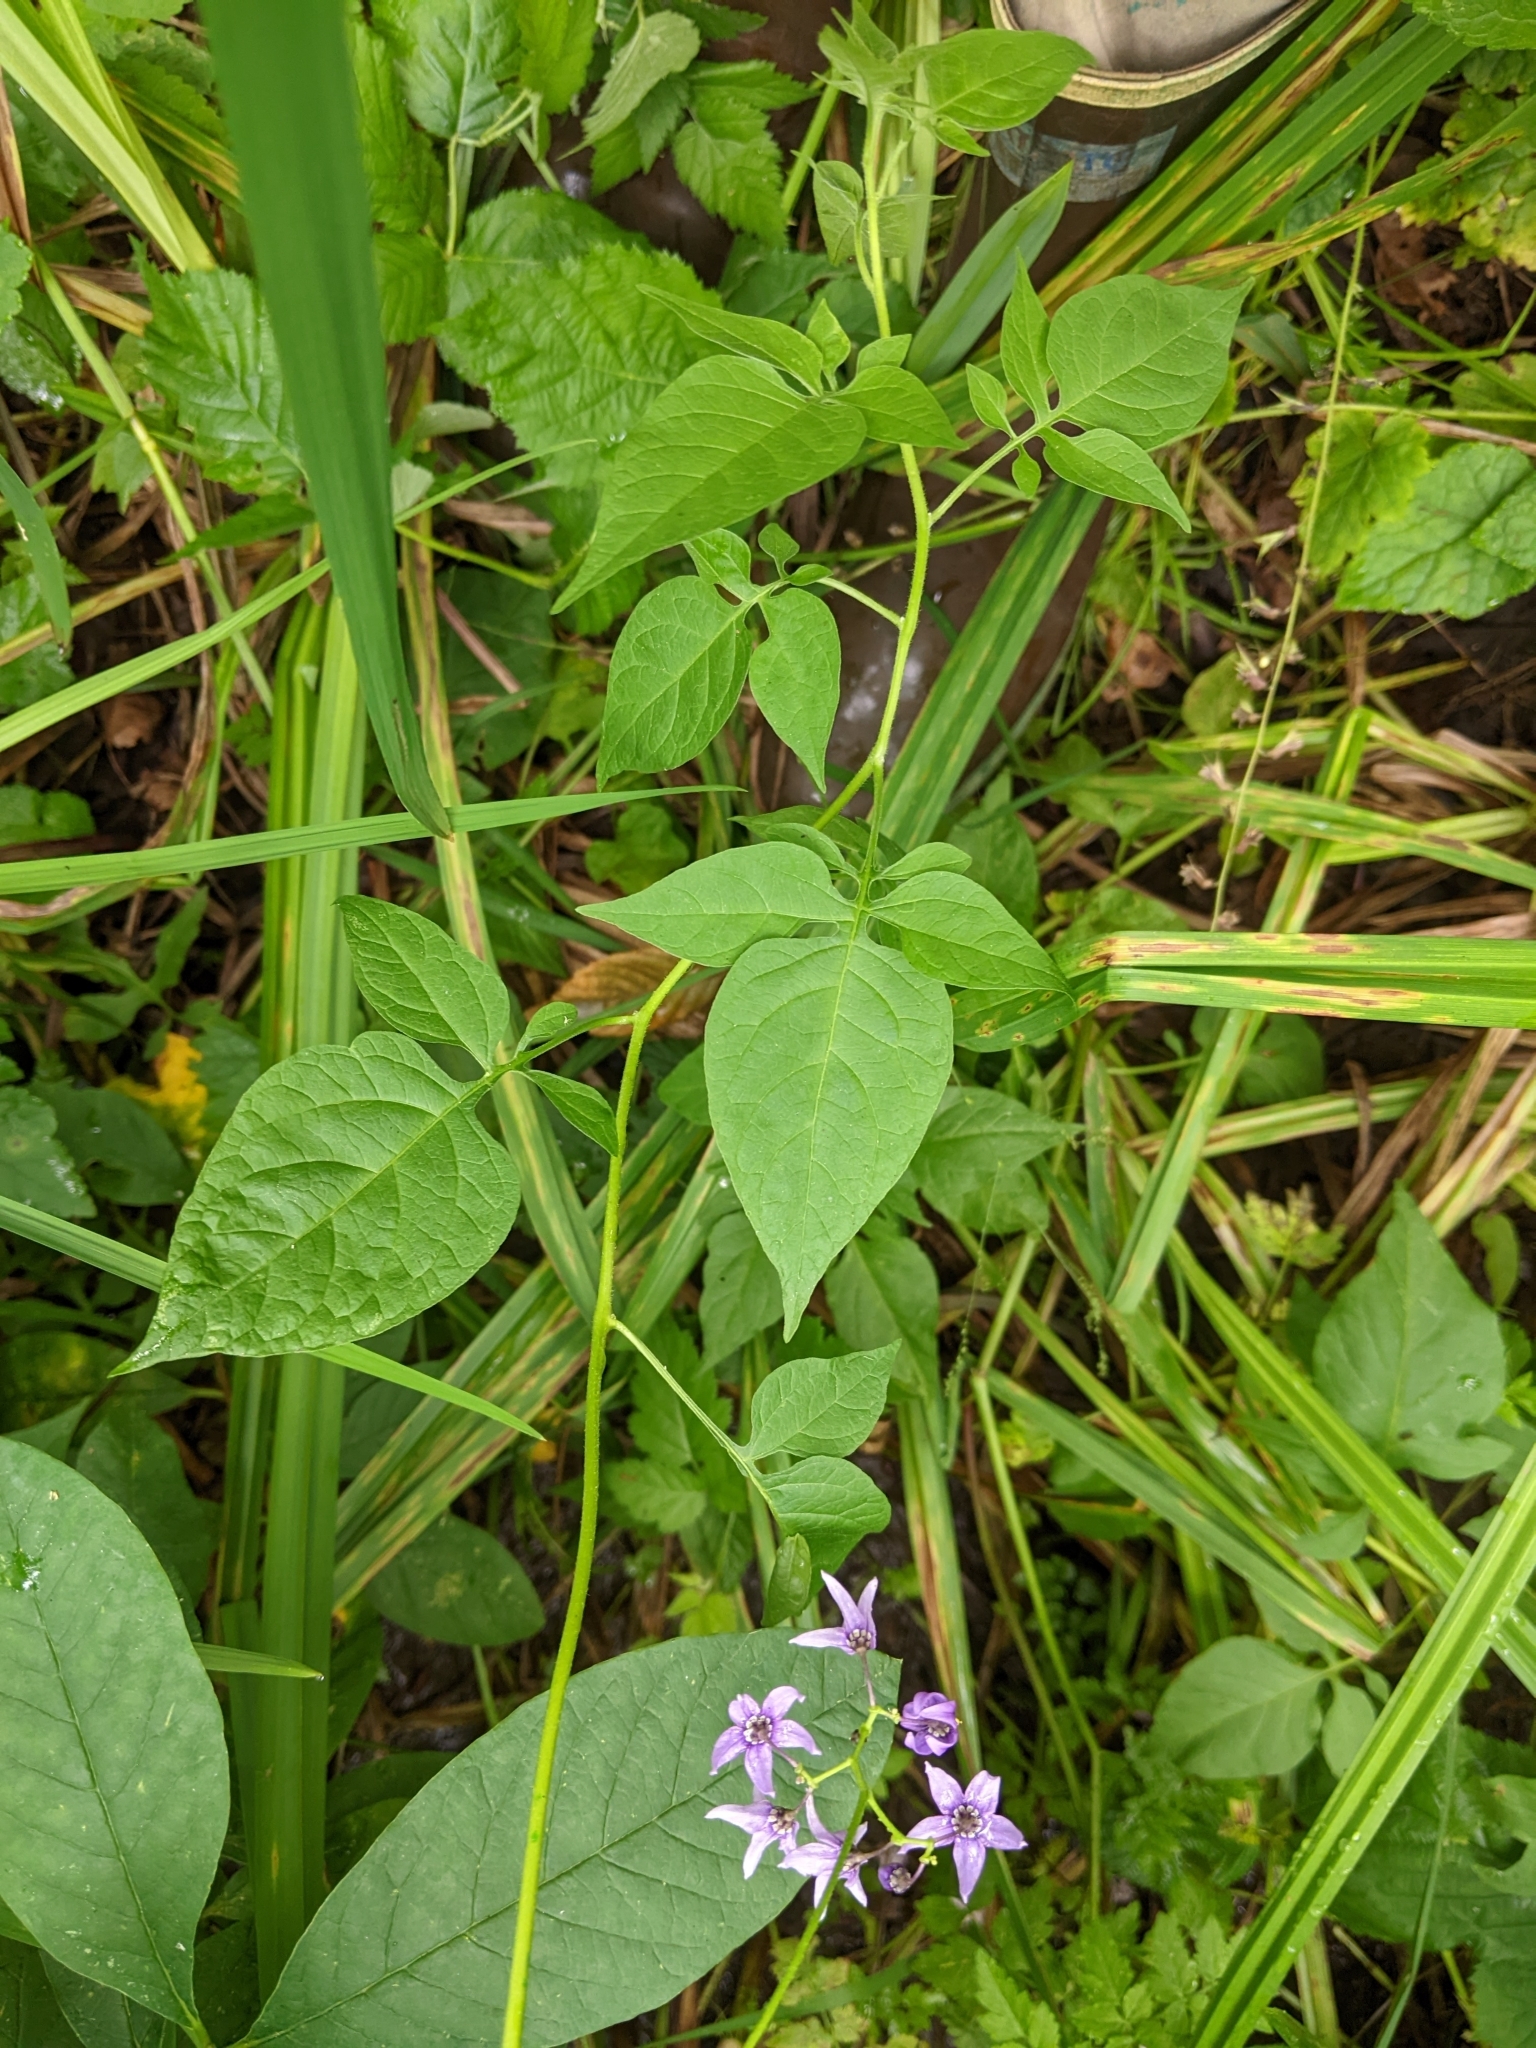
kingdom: Plantae
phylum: Tracheophyta
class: Magnoliopsida
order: Solanales
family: Solanaceae
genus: Solanum
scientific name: Solanum dulcamara
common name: Climbing nightshade
